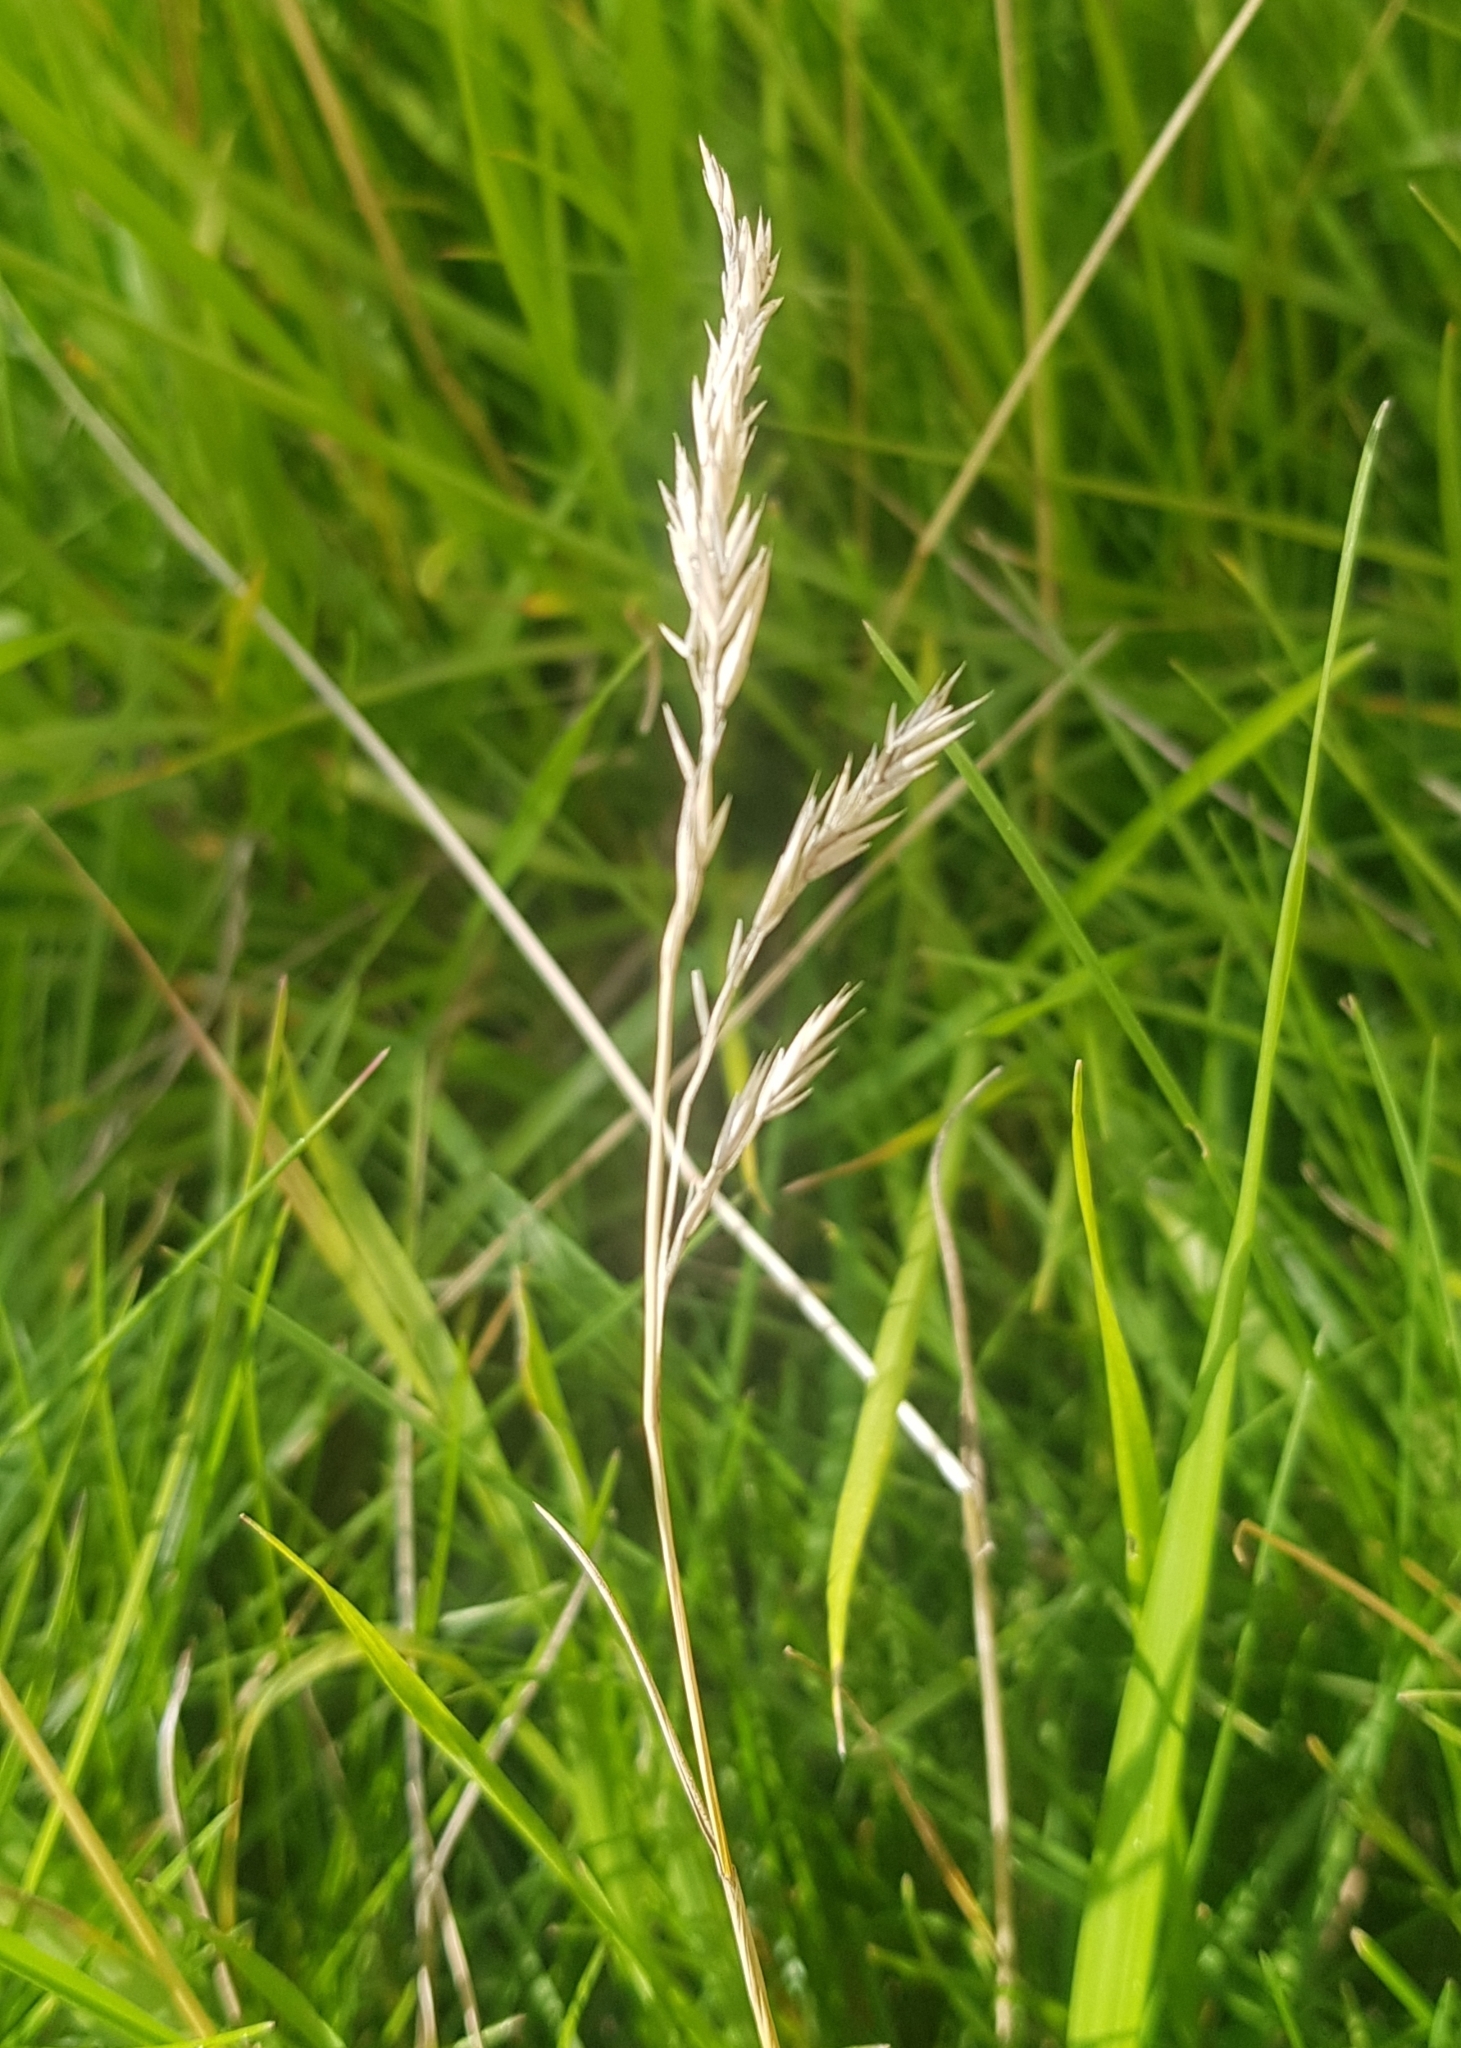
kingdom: Plantae
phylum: Tracheophyta
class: Liliopsida
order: Poales
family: Poaceae
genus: Poa
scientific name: Poa pratensis
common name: Kentucky bluegrass
